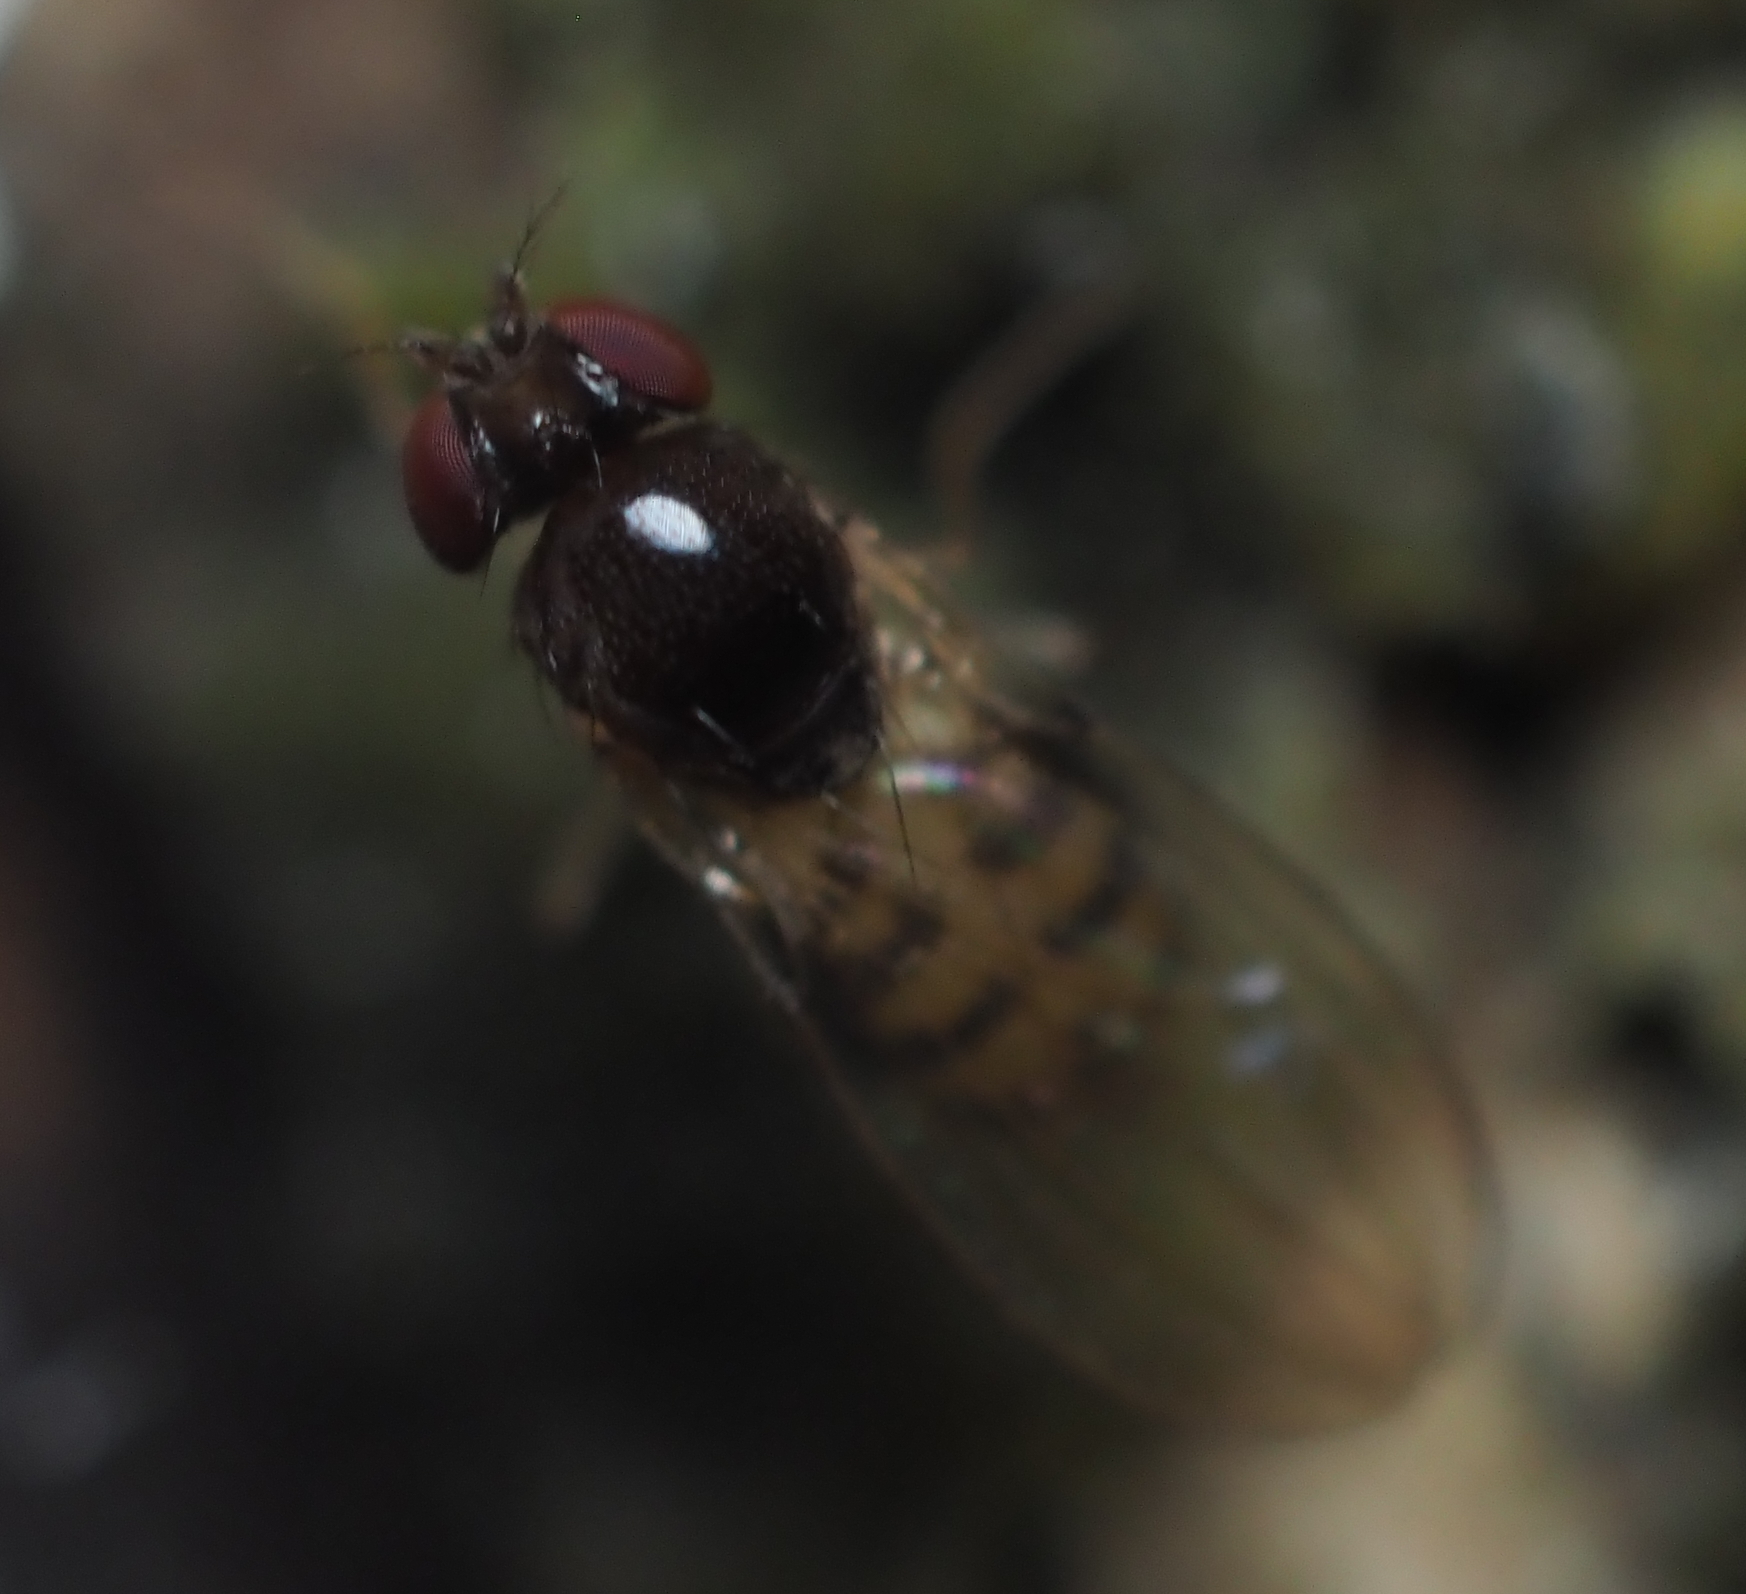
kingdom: Animalia
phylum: Arthropoda
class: Insecta
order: Diptera
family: Asteiidae
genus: Asteia
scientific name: Asteia beata
